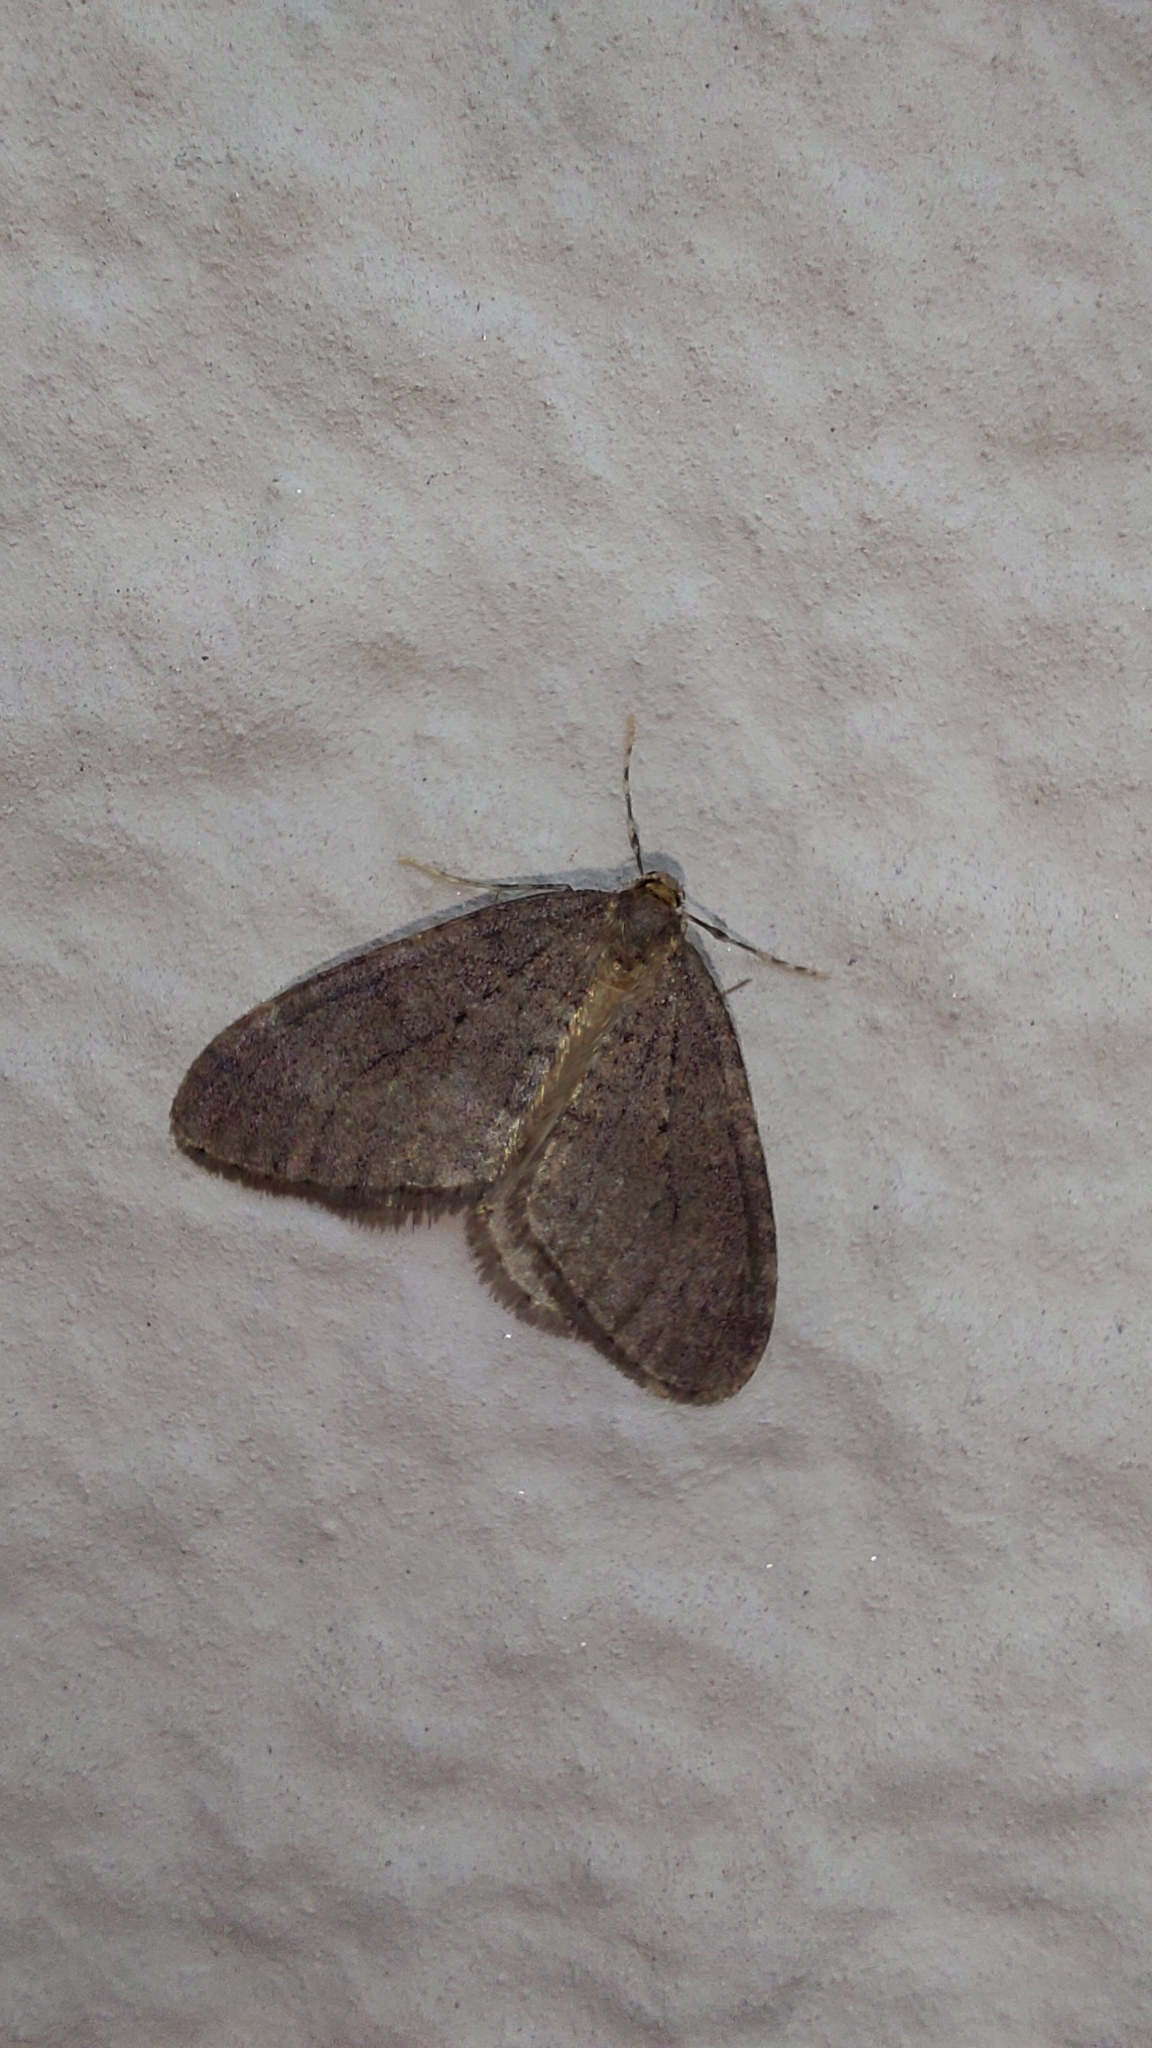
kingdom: Animalia
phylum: Arthropoda
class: Insecta
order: Lepidoptera
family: Geometridae
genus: Operophtera
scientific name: Operophtera brumata
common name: Winter moth
